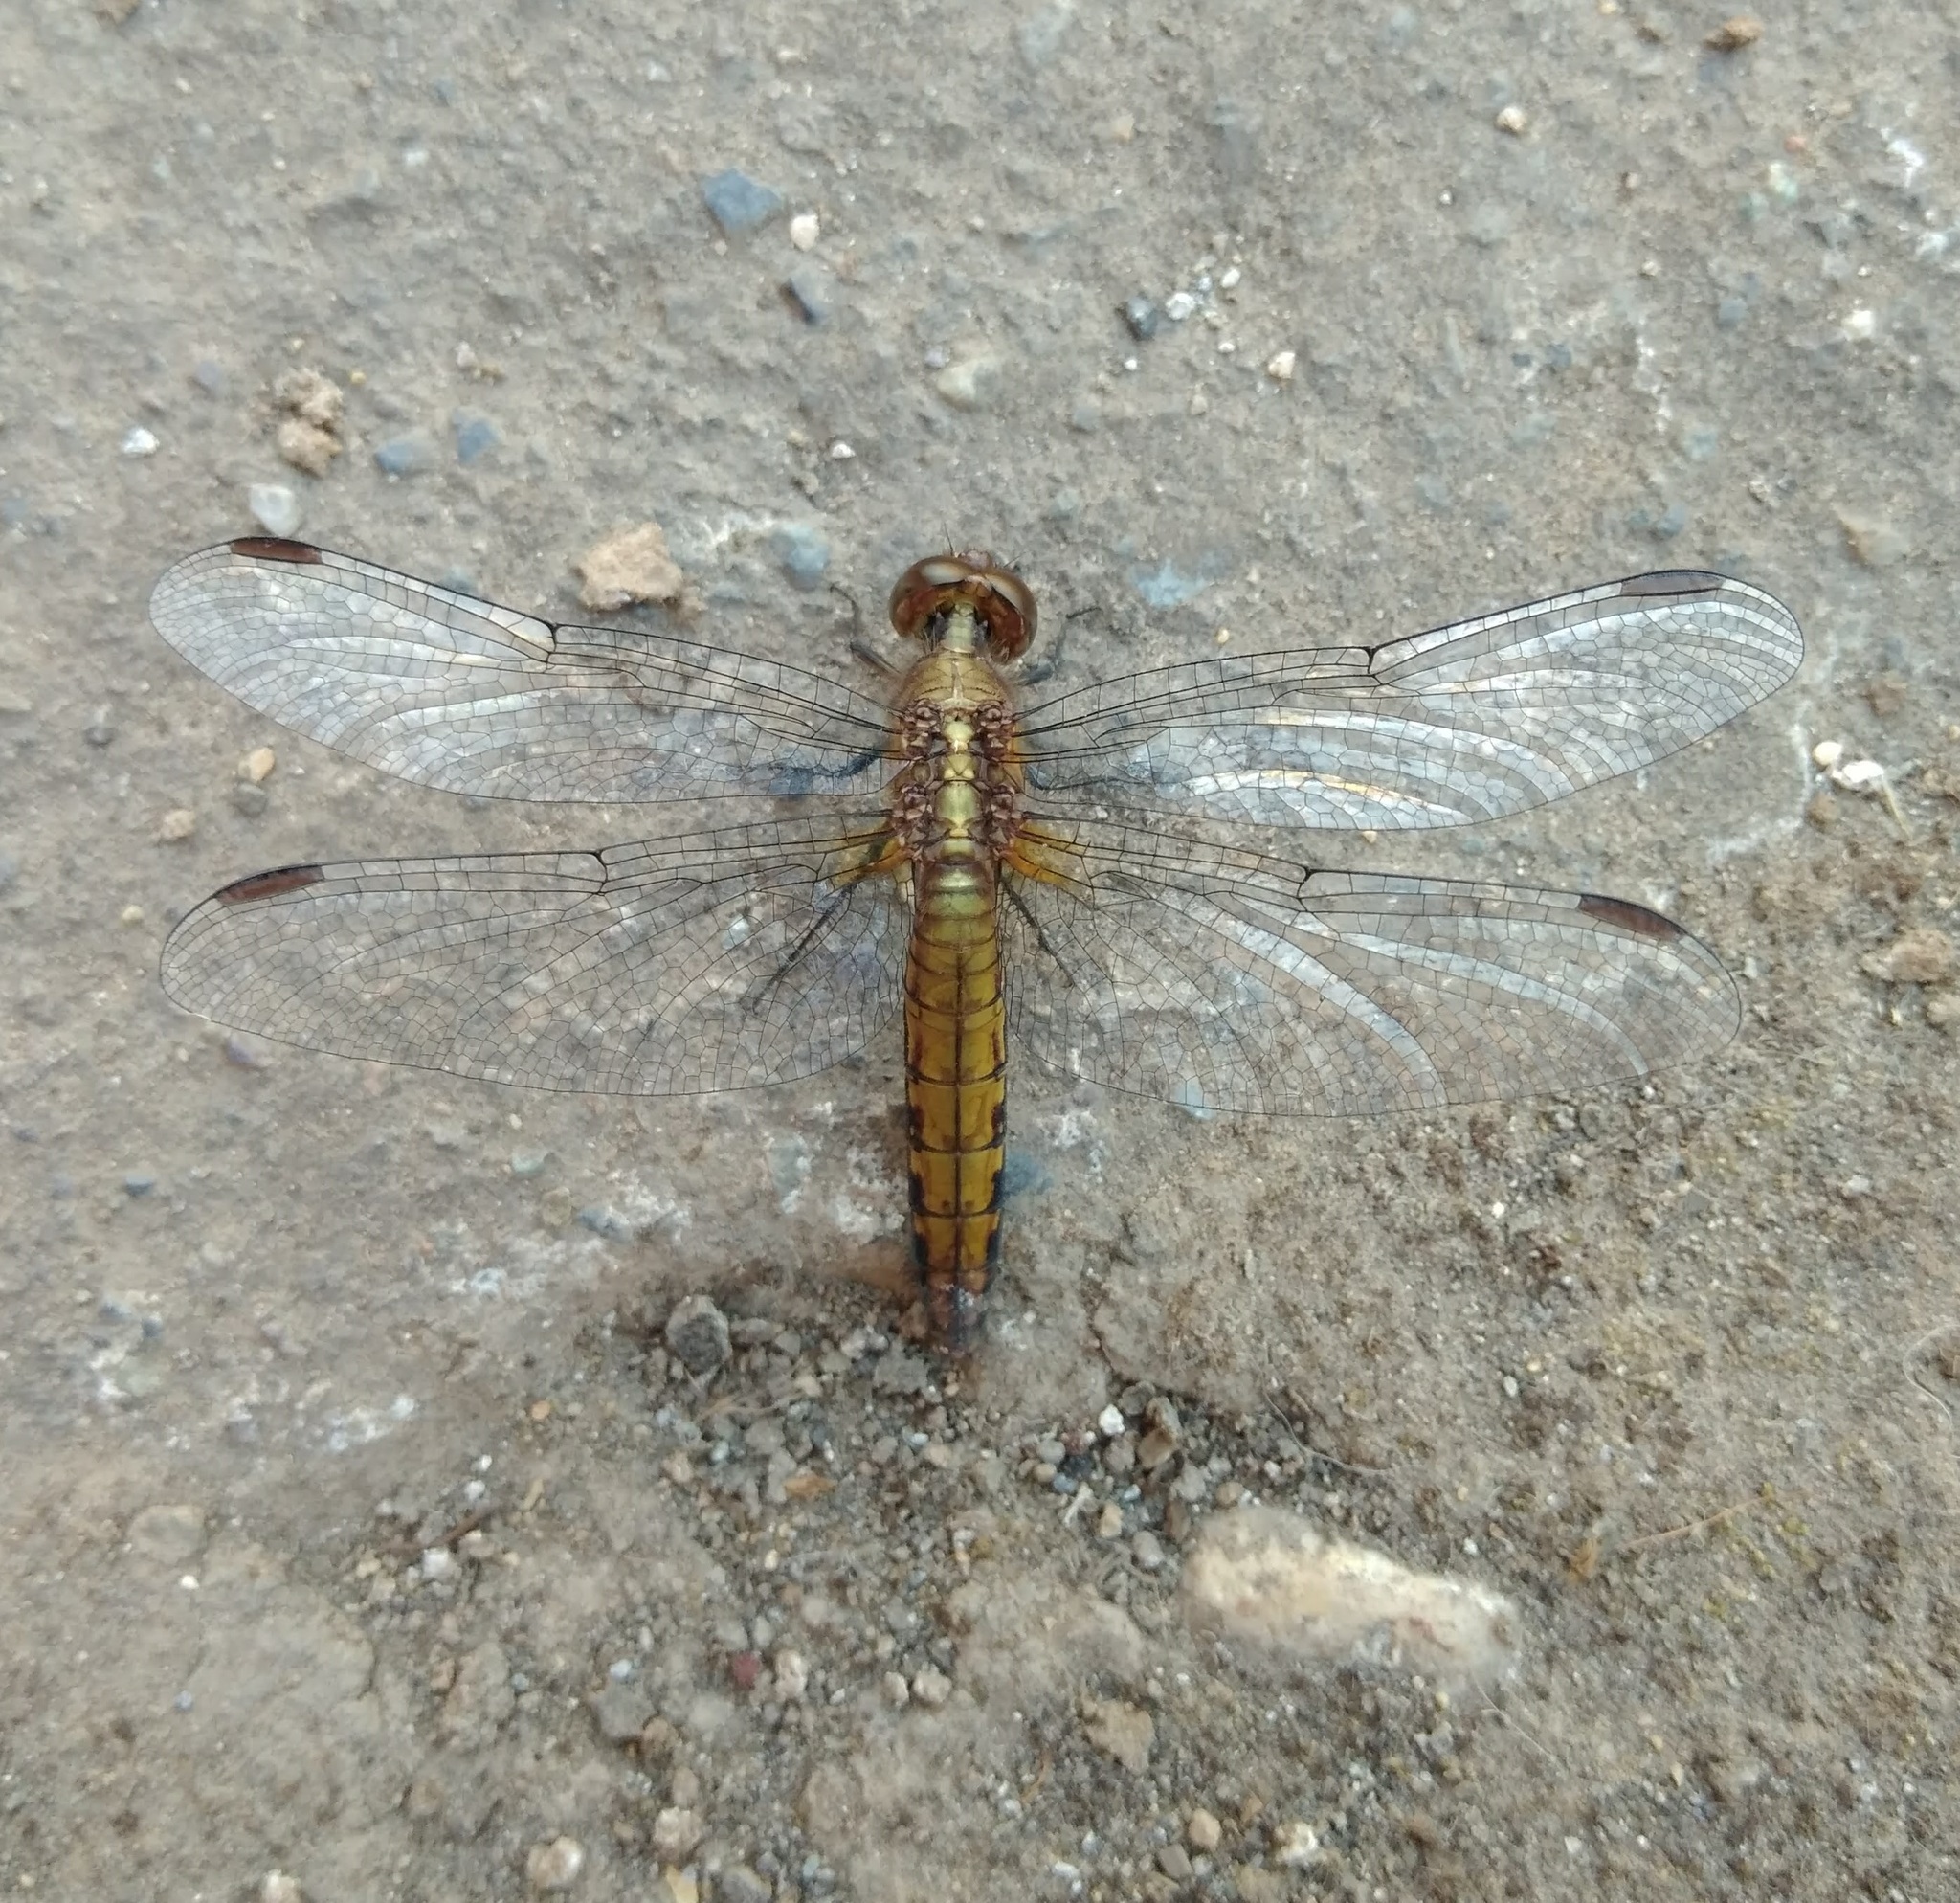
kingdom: Animalia
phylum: Arthropoda
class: Insecta
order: Odonata
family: Libellulidae
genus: Erythrodiplax
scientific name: Erythrodiplax connata
